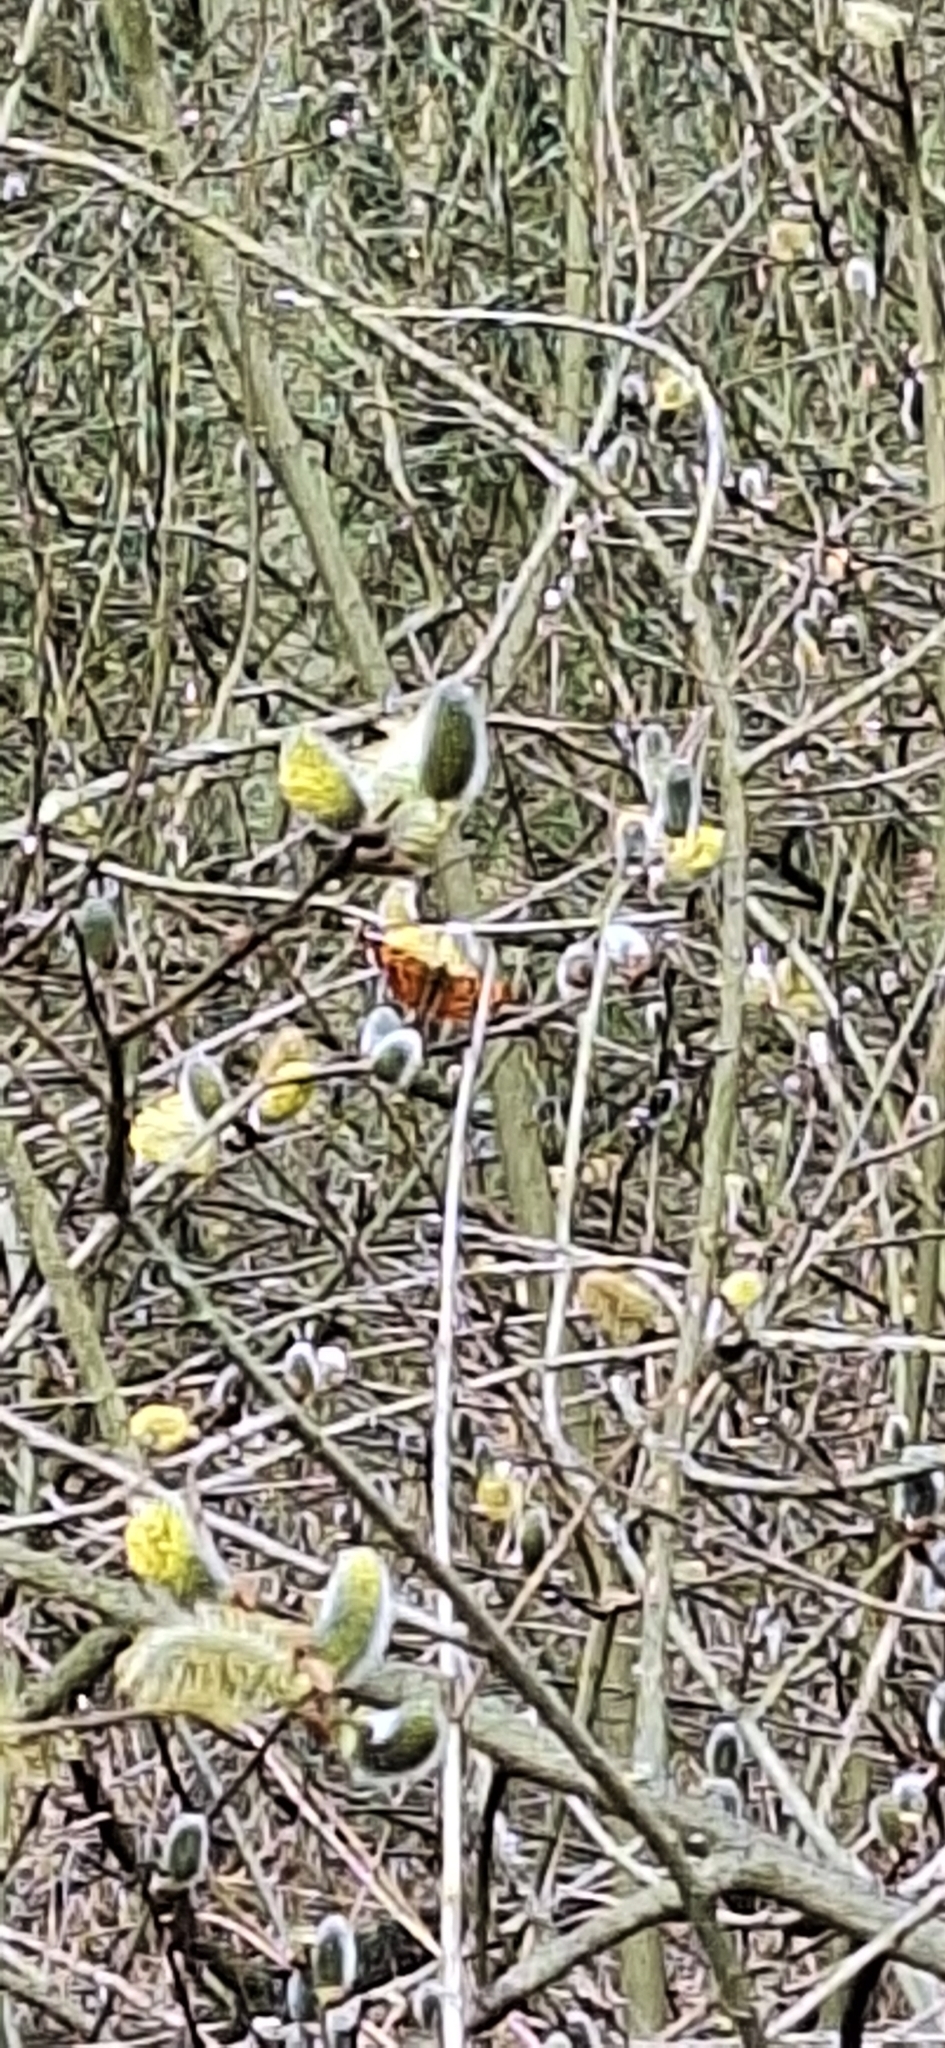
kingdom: Animalia
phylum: Arthropoda
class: Insecta
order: Lepidoptera
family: Nymphalidae
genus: Polygonia
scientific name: Polygonia c-album
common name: Comma
